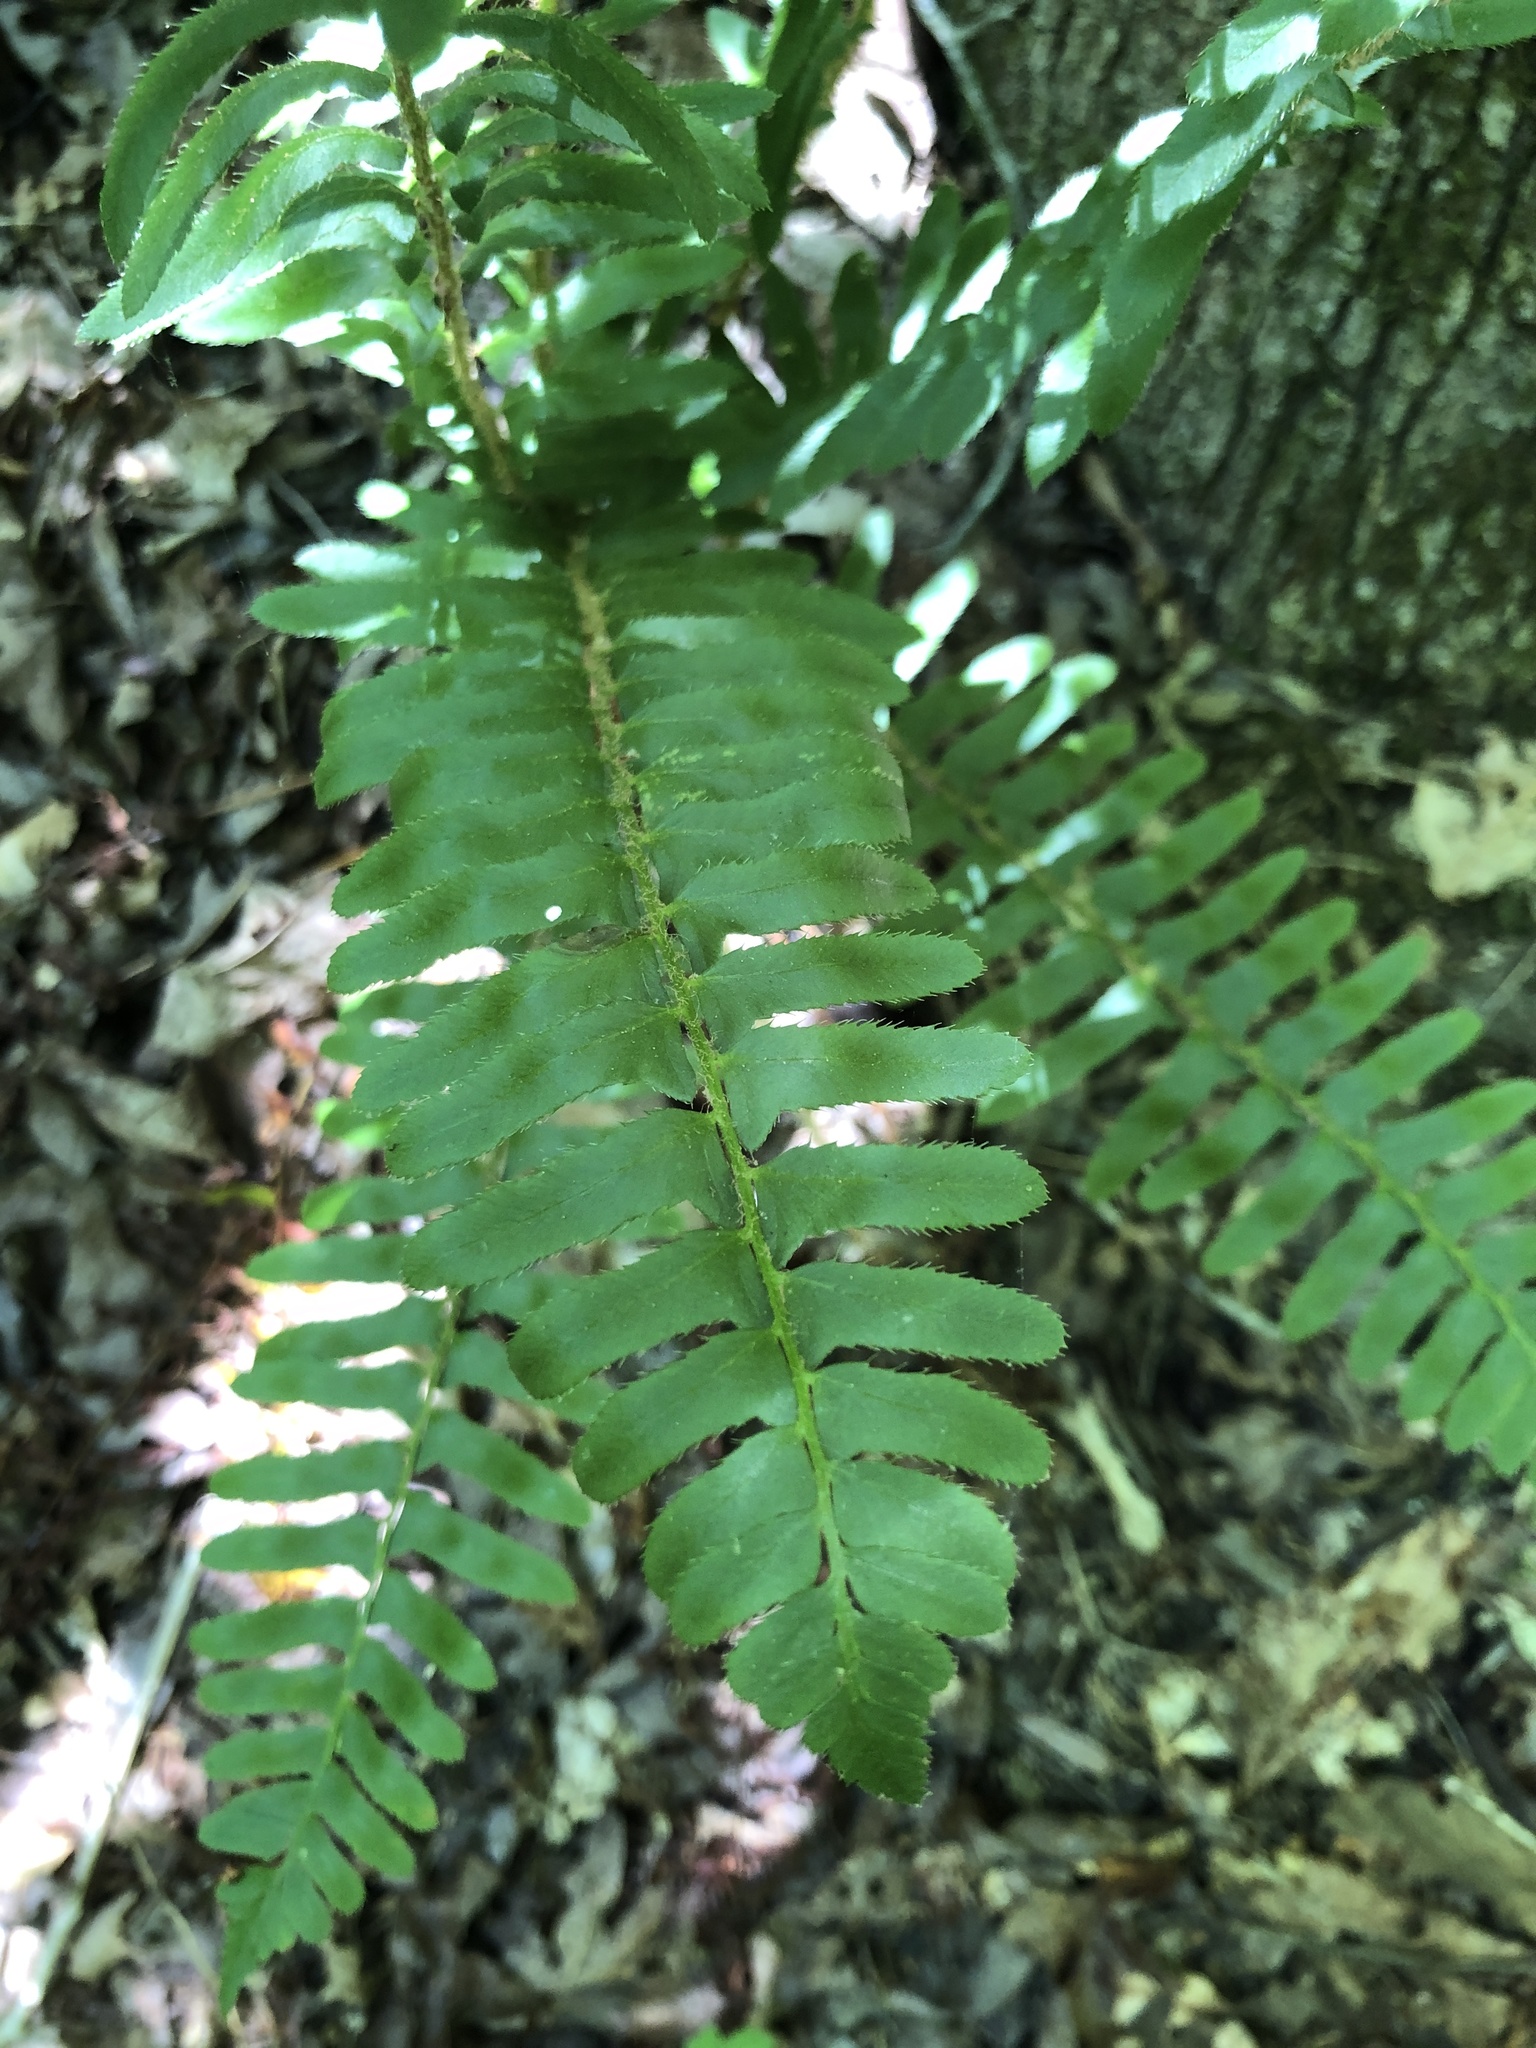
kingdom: Plantae
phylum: Tracheophyta
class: Polypodiopsida
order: Polypodiales
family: Dryopteridaceae
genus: Polystichum
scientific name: Polystichum acrostichoides
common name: Christmas fern
